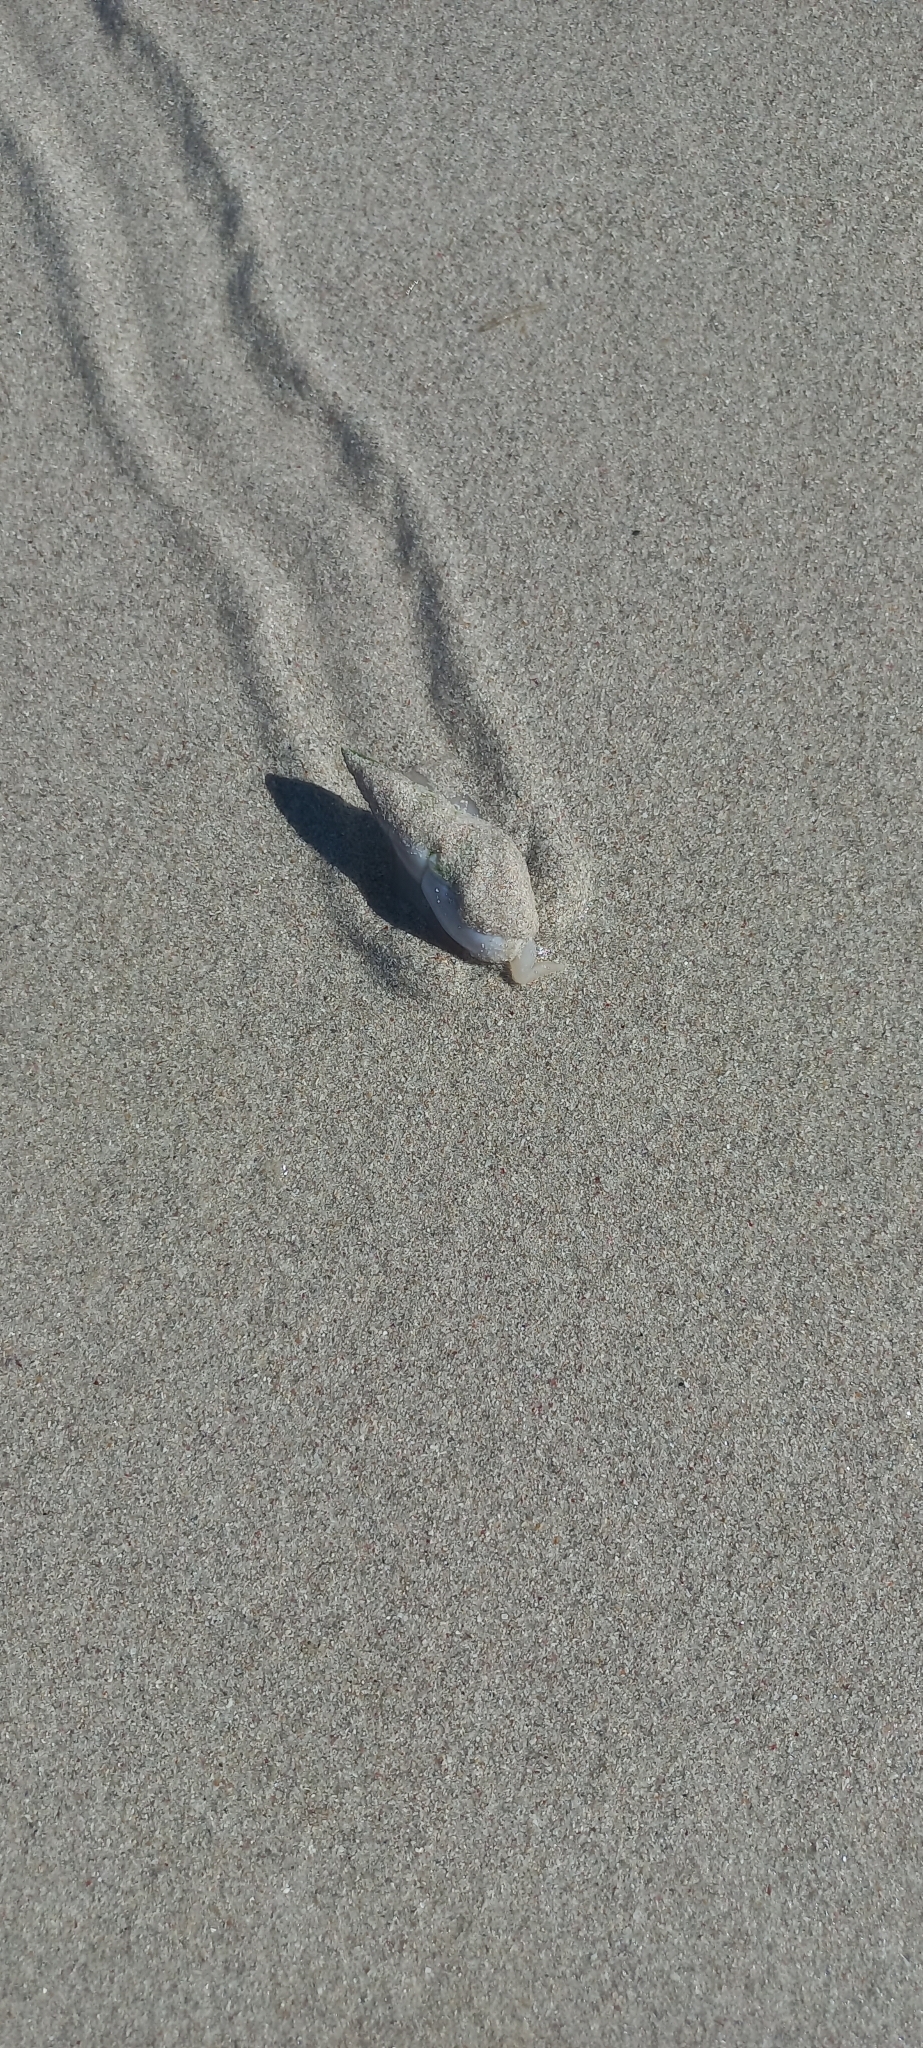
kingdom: Animalia
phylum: Mollusca
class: Gastropoda
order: Neogastropoda
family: Nassariidae
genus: Bullia
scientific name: Bullia rhodostoma
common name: Smooth plough shell
